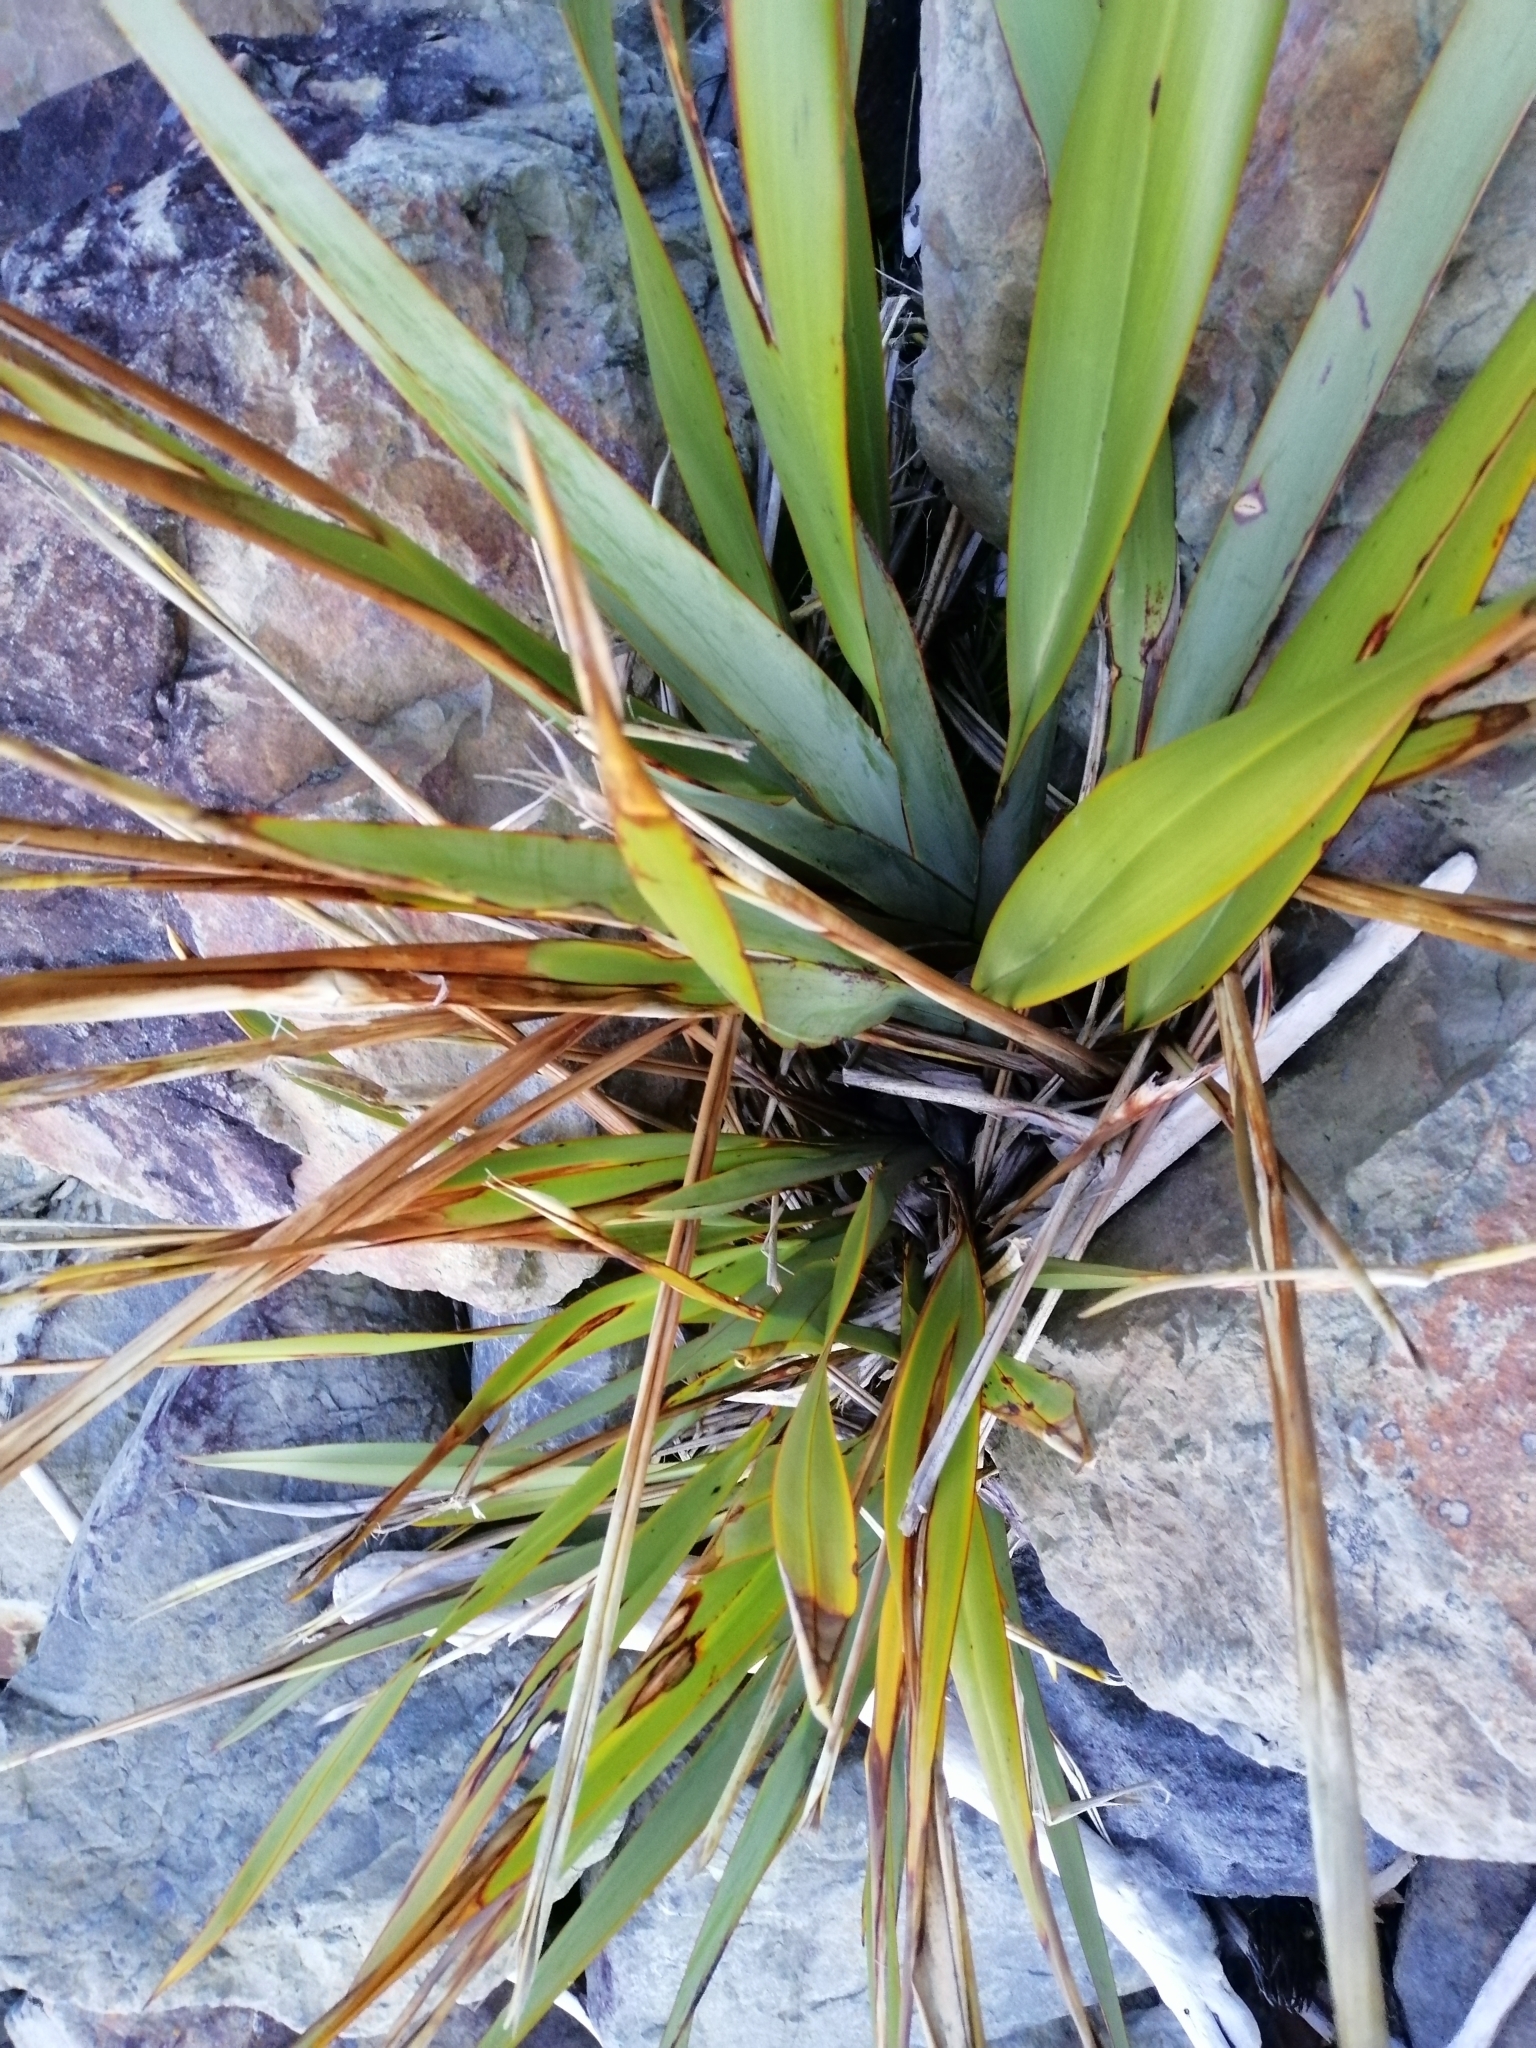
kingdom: Plantae
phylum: Tracheophyta
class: Liliopsida
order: Asparagales
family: Asphodelaceae
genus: Phormium
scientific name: Phormium tenax
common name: New zealand flax
